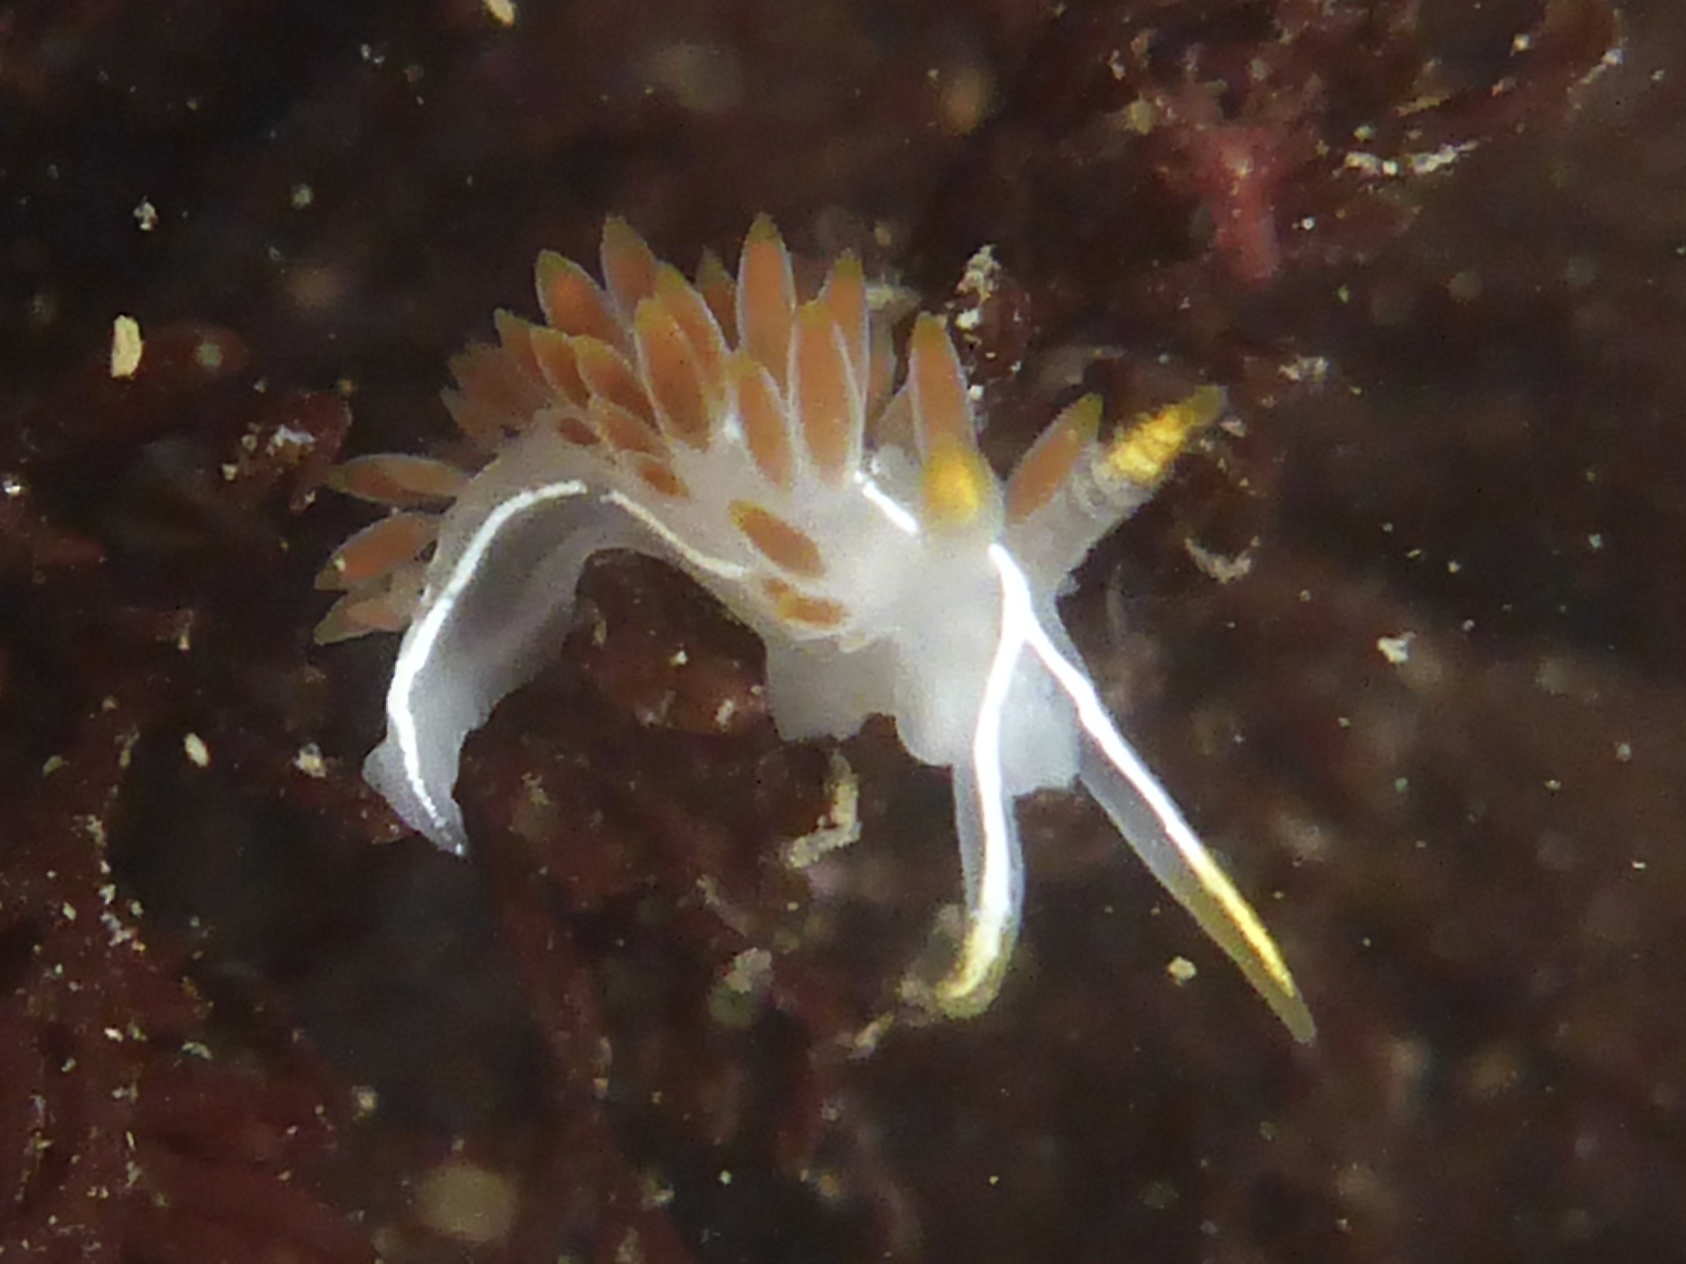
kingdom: Animalia
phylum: Mollusca
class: Gastropoda
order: Nudibranchia
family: Coryphellidae
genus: Coryphella
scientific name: Coryphella trilineata
